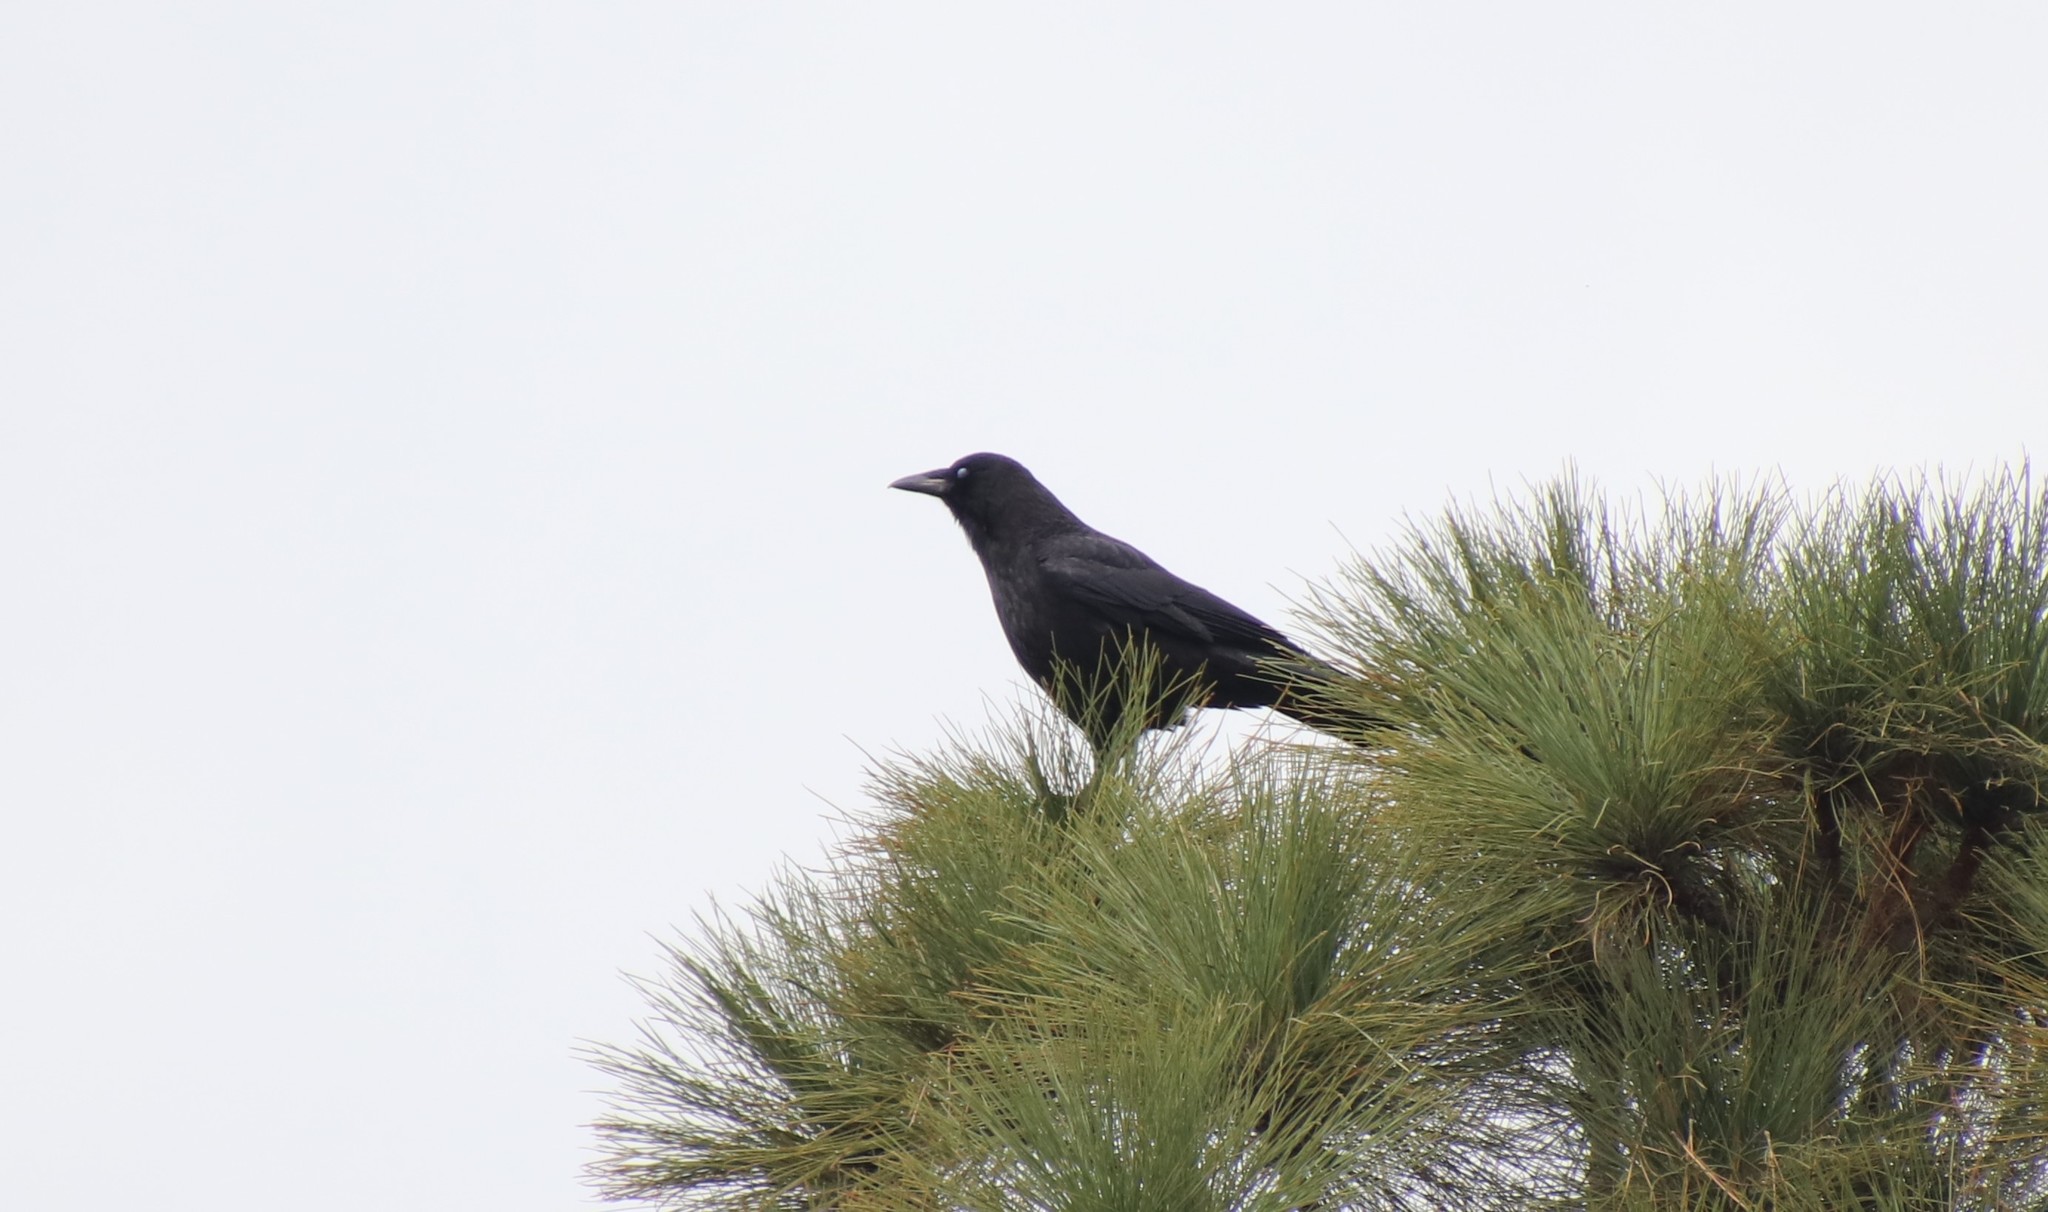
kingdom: Animalia
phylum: Chordata
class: Aves
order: Passeriformes
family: Corvidae
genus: Corvus
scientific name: Corvus brachyrhynchos
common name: American crow
